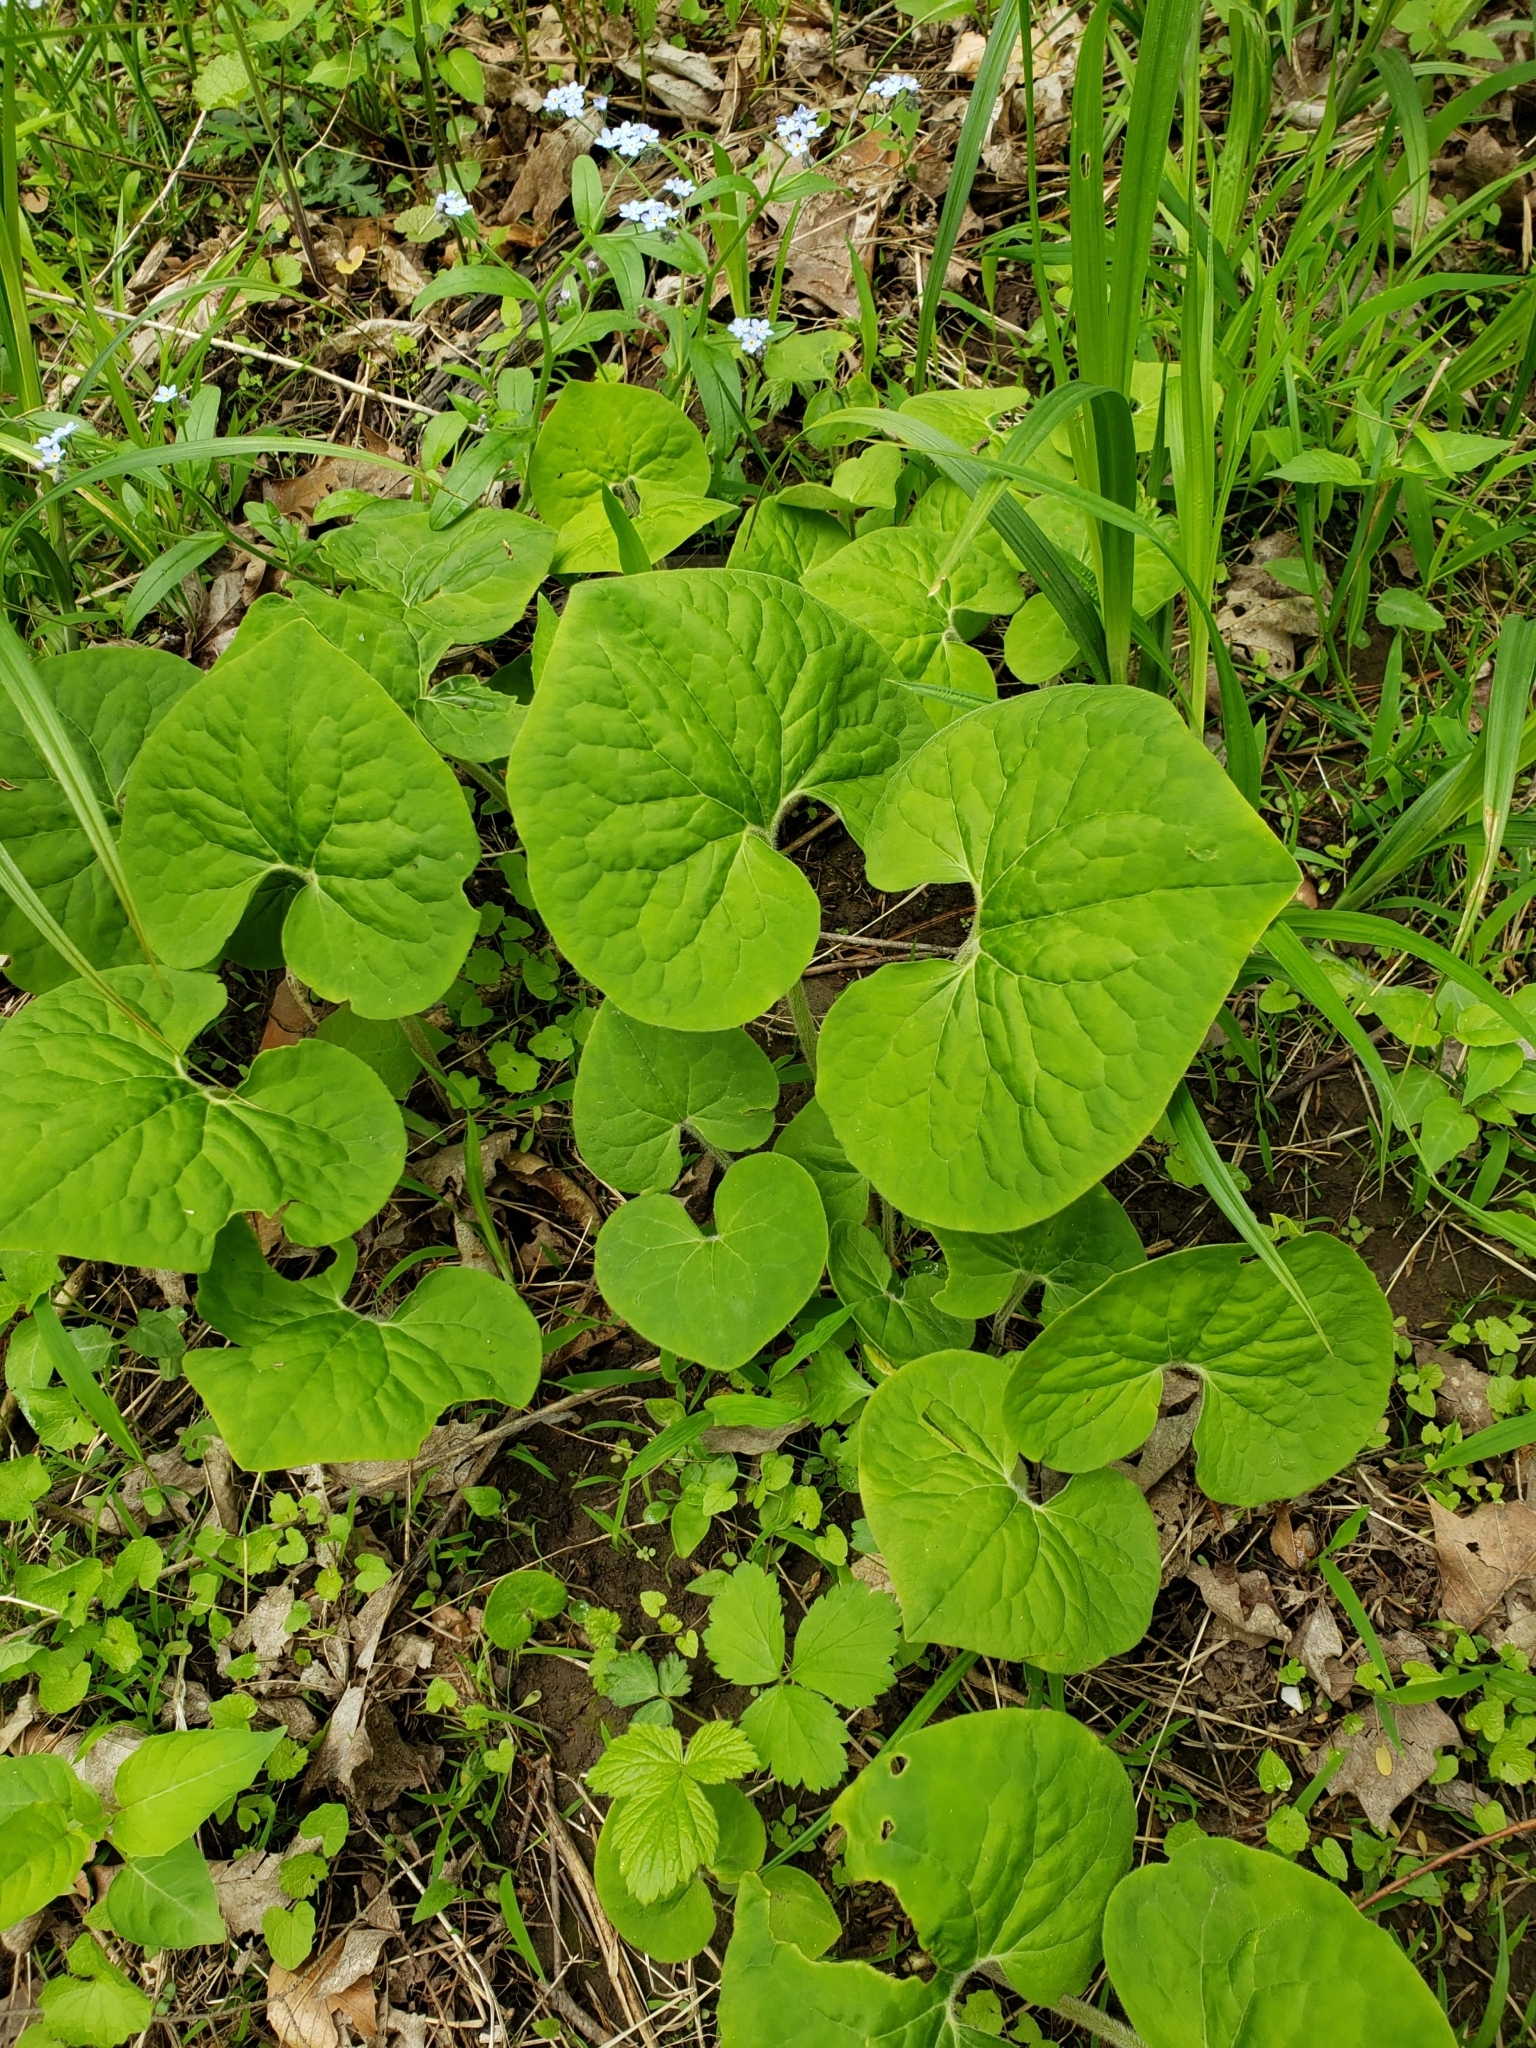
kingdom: Plantae
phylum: Tracheophyta
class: Magnoliopsida
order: Piperales
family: Aristolochiaceae
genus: Asarum
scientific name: Asarum canadense
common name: Wild ginger
